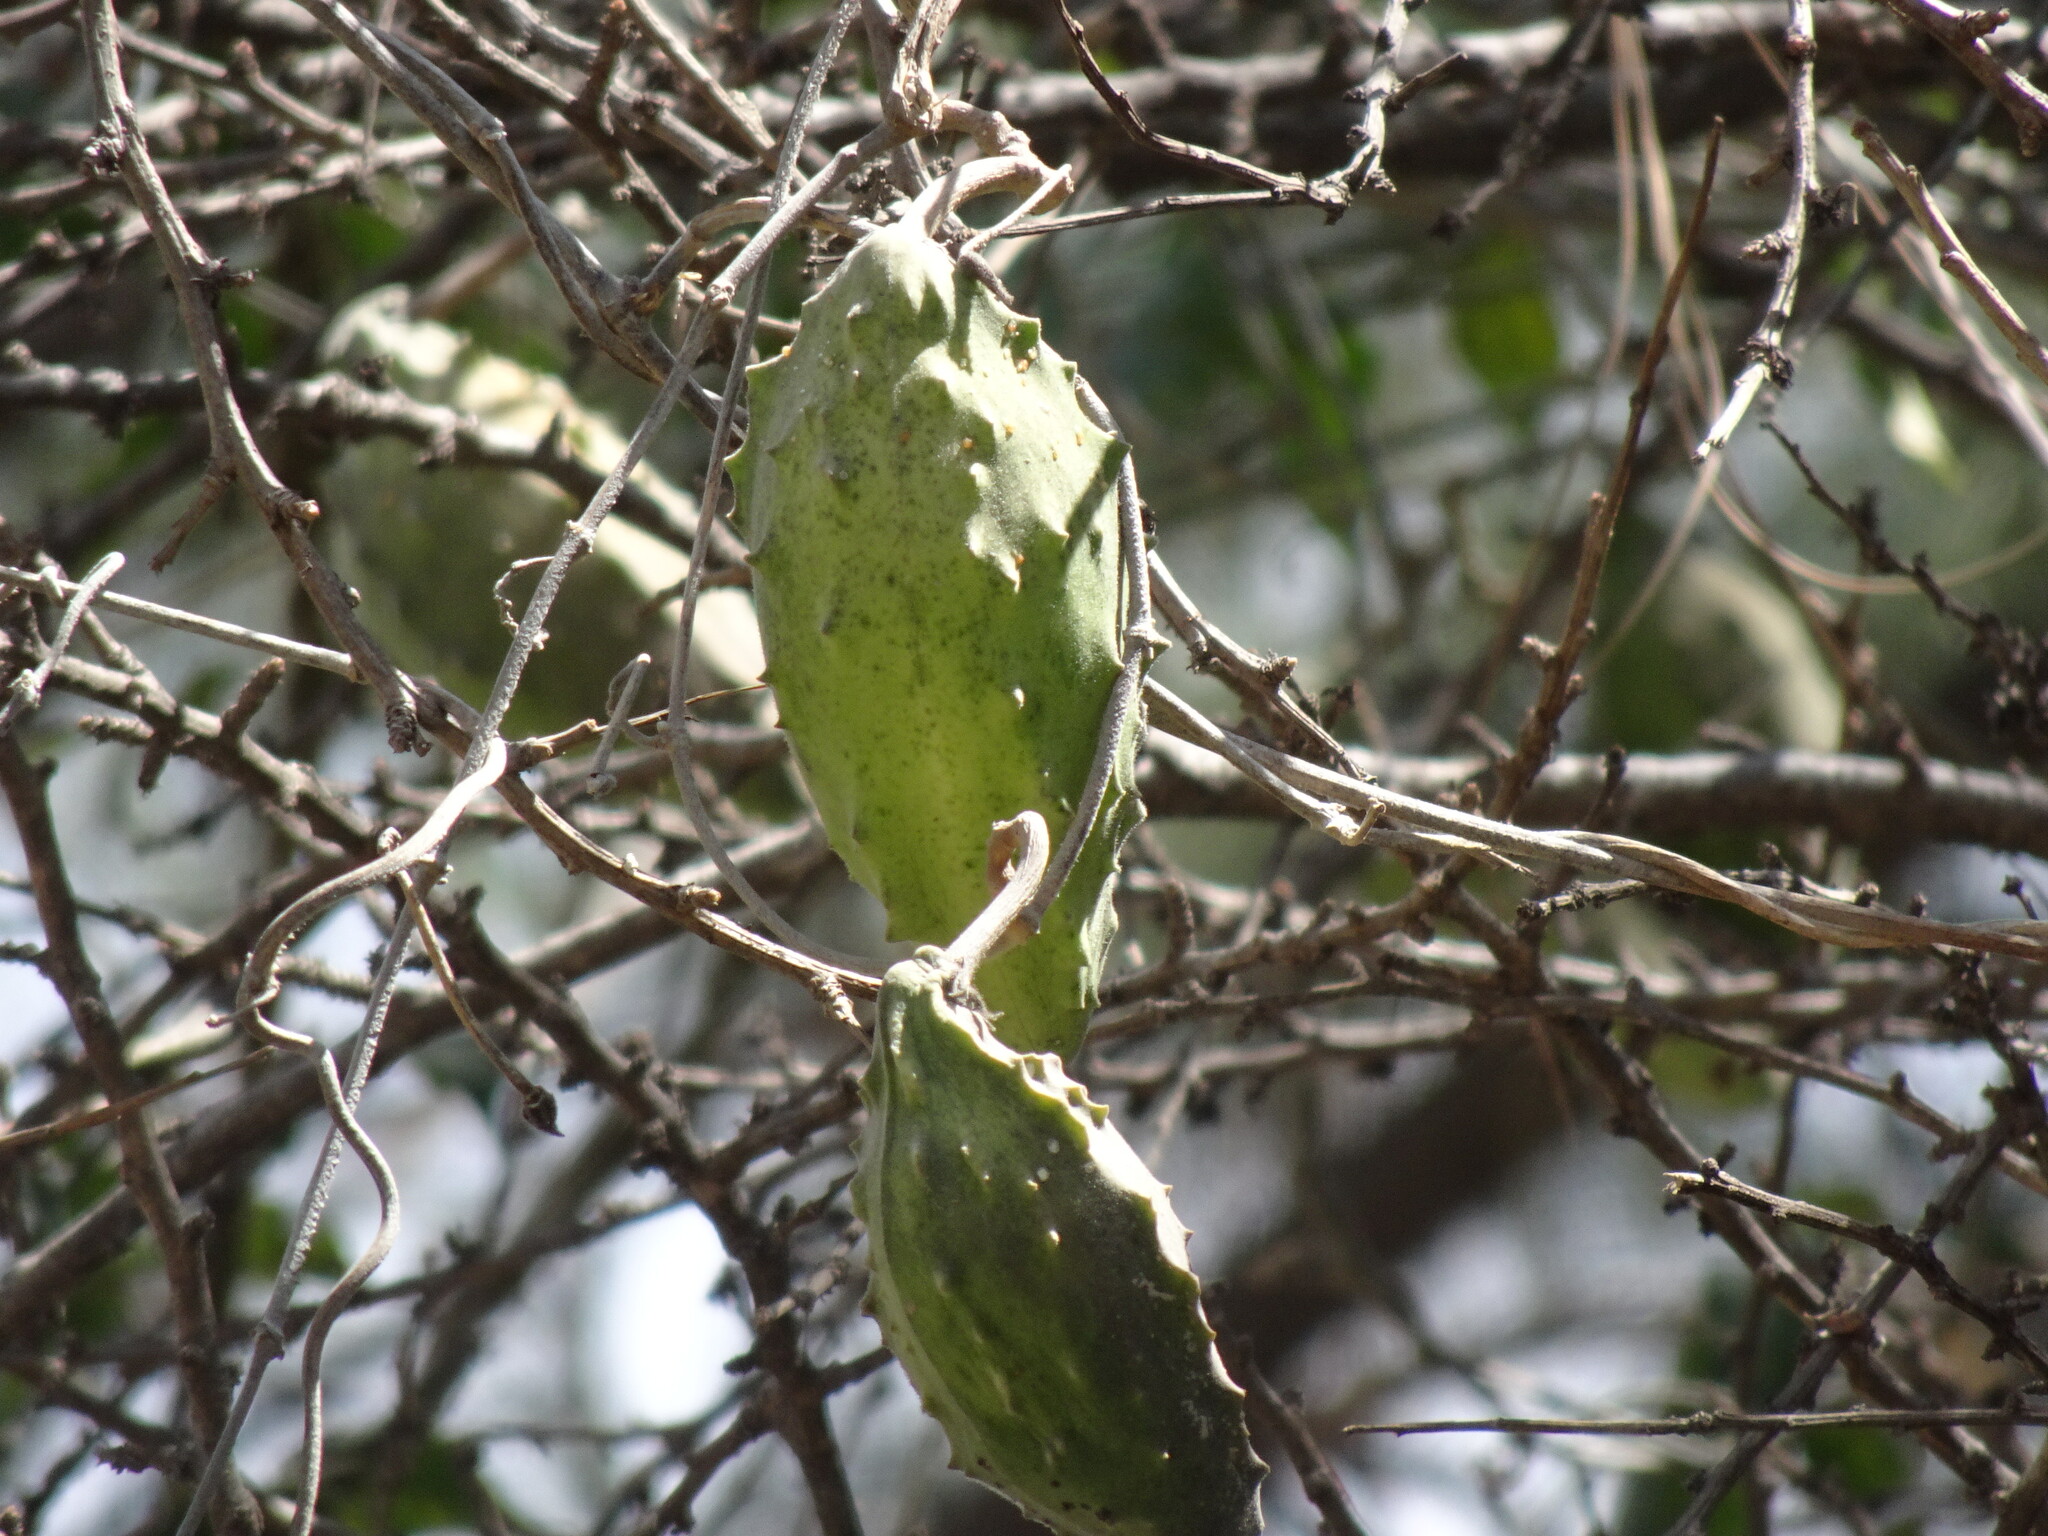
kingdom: Plantae
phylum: Tracheophyta
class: Magnoliopsida
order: Gentianales
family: Apocynaceae
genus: Gonolobus
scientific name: Gonolobus grandiflorus
